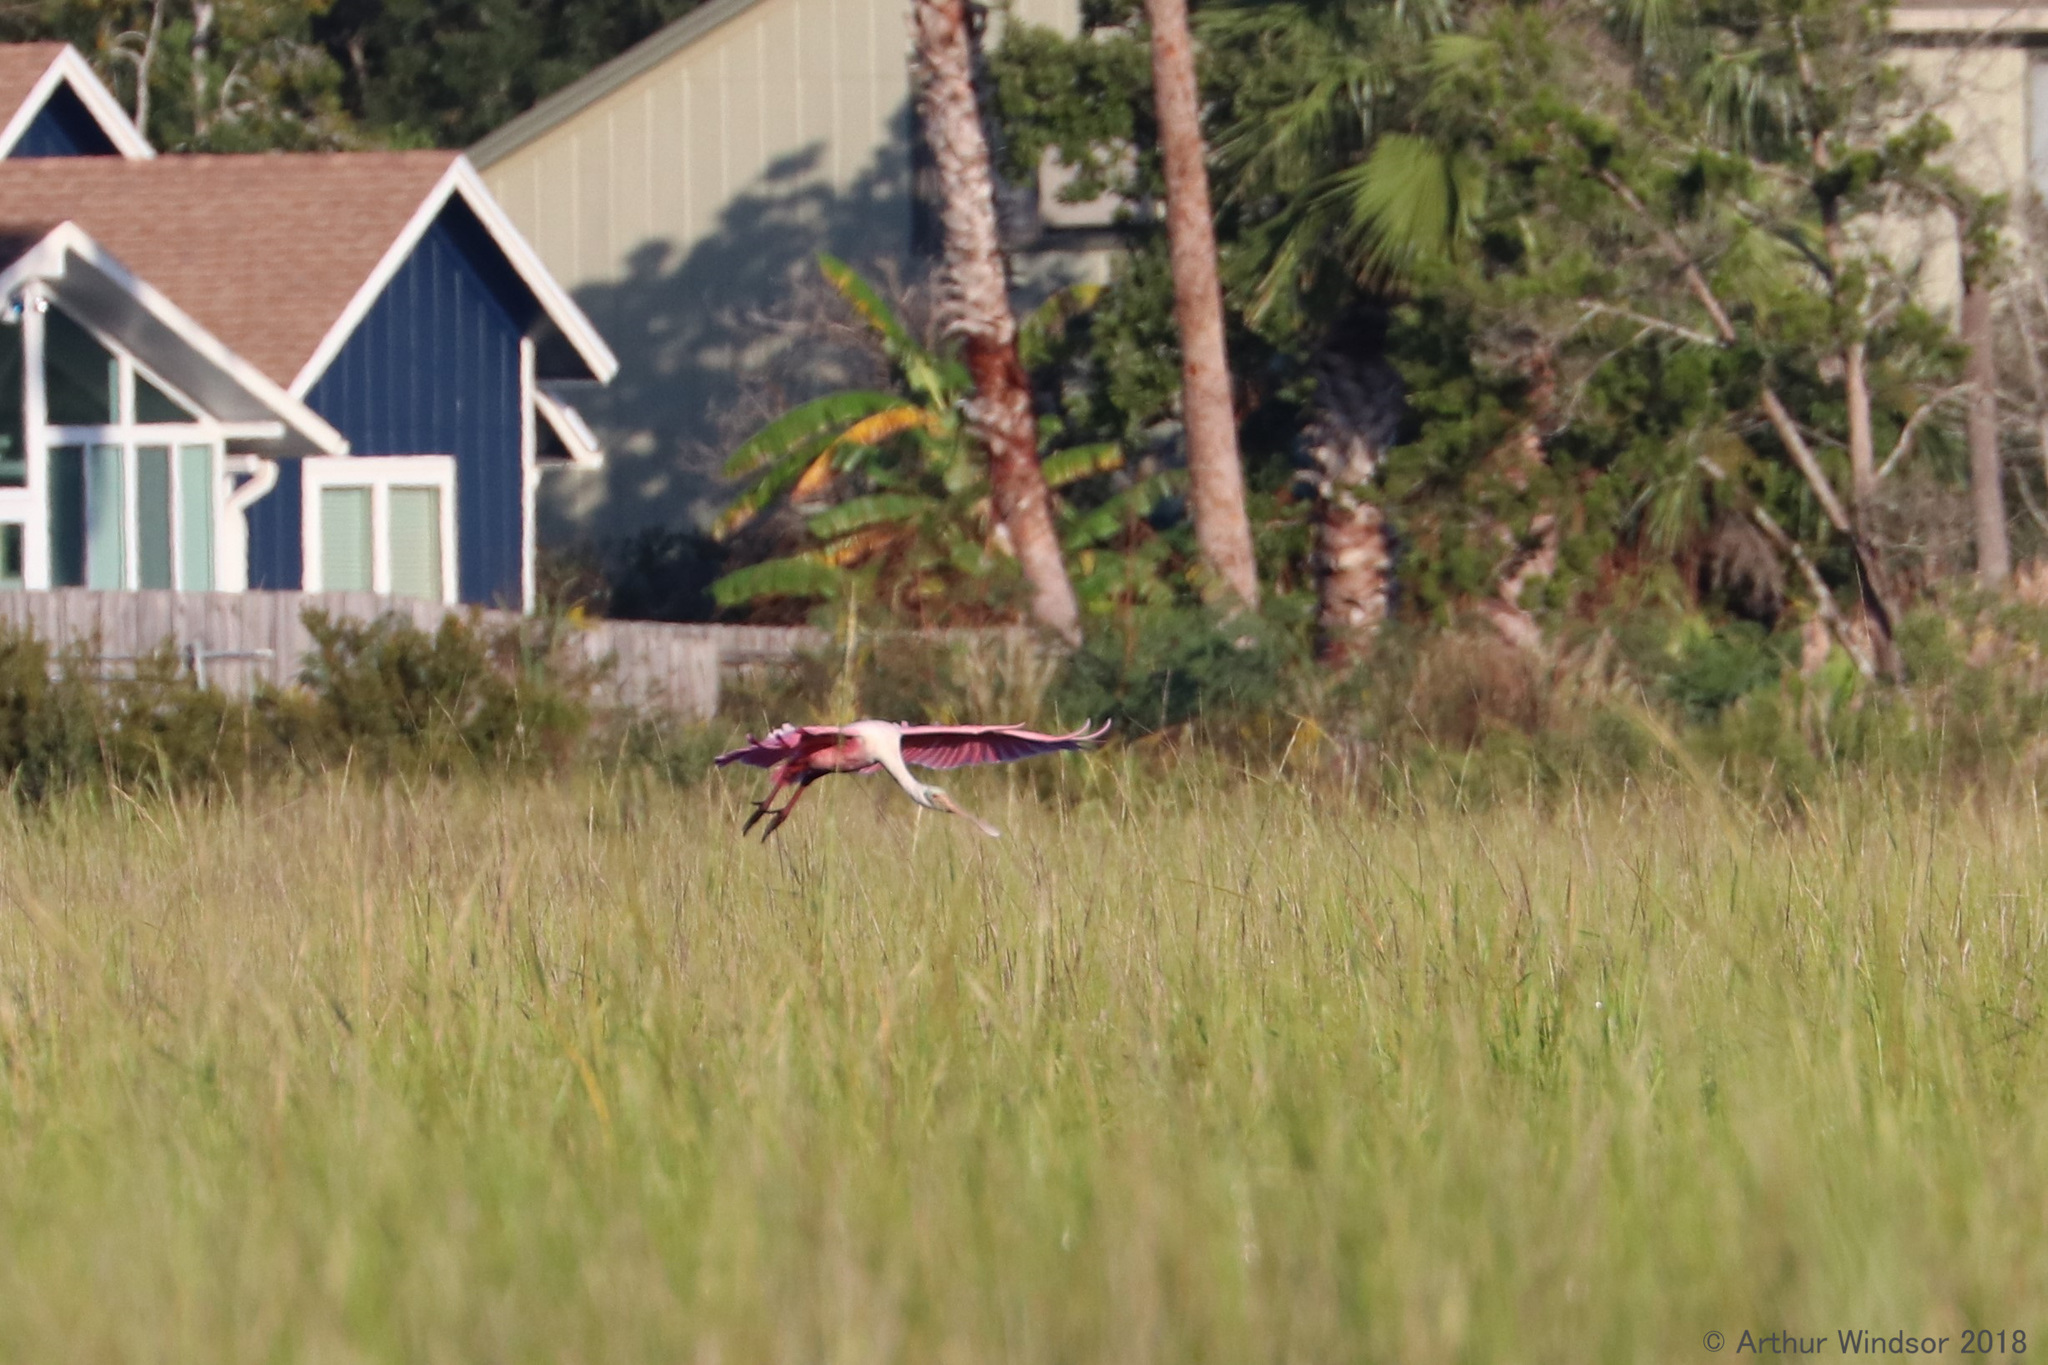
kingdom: Animalia
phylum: Chordata
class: Aves
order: Pelecaniformes
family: Threskiornithidae
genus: Platalea
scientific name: Platalea ajaja
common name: Roseate spoonbill
